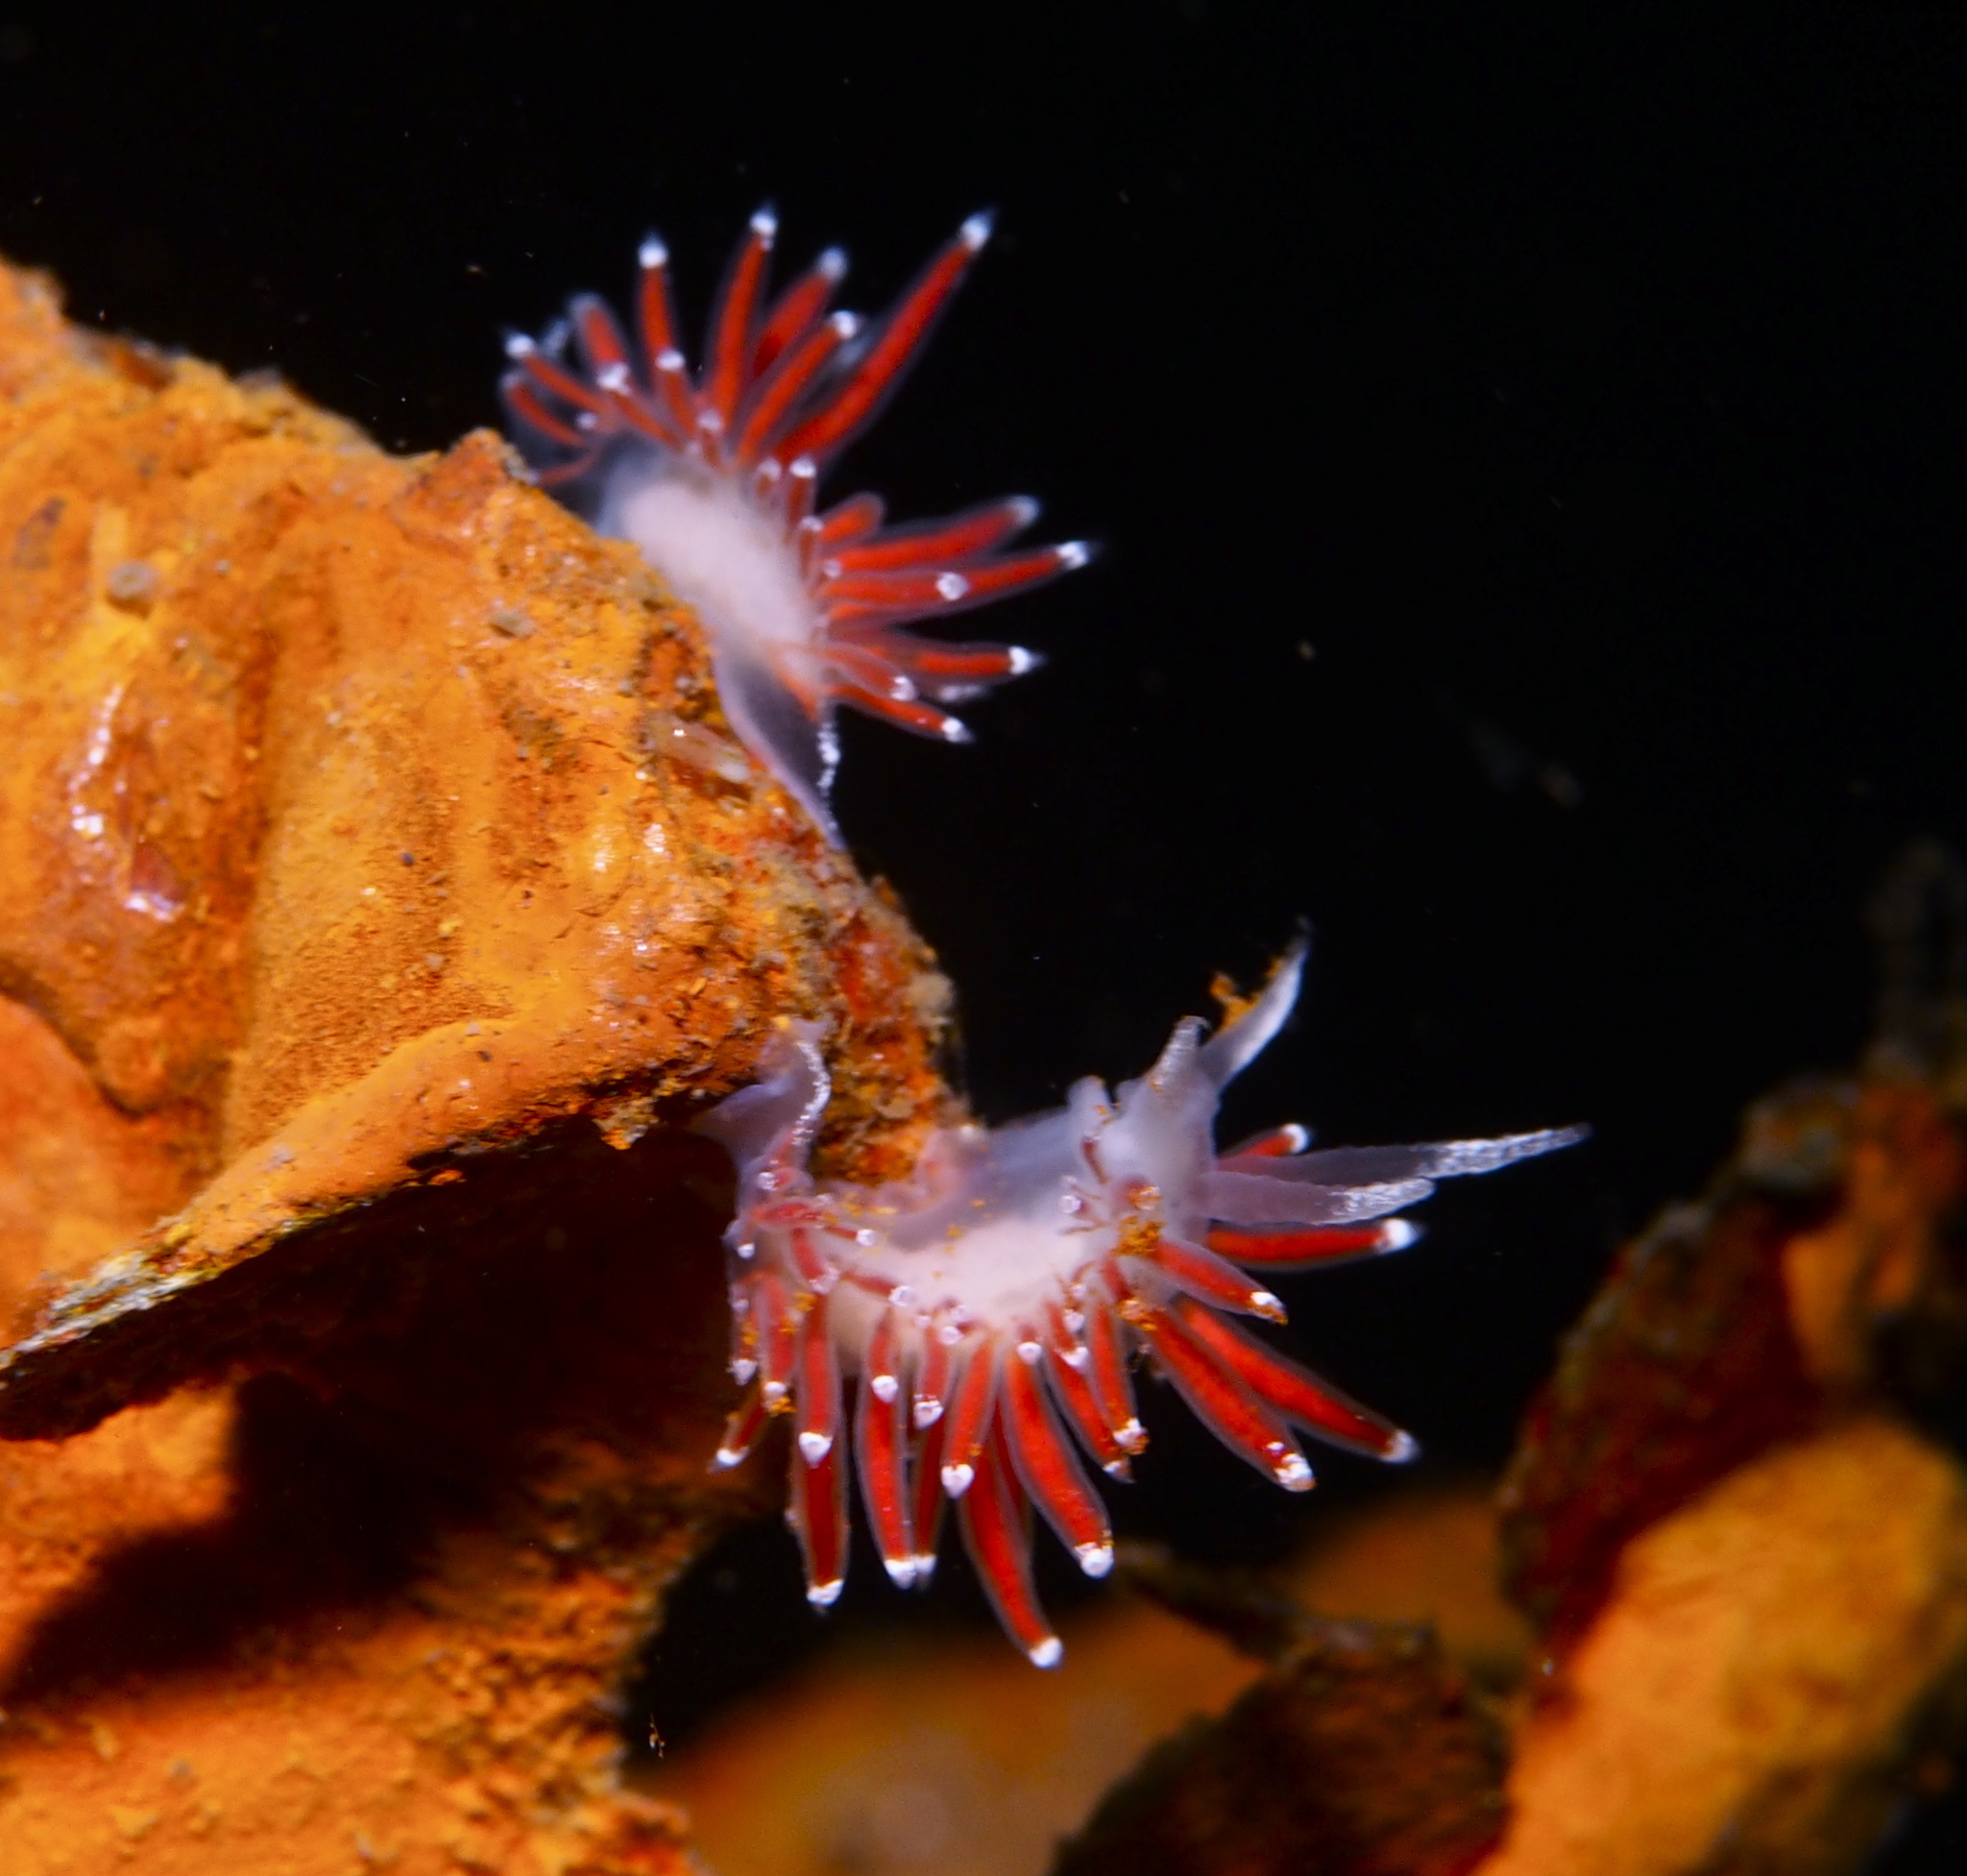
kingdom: Animalia
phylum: Mollusca
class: Gastropoda
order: Nudibranchia
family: Coryphellidae
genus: Coryphella
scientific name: Coryphella gracilis
